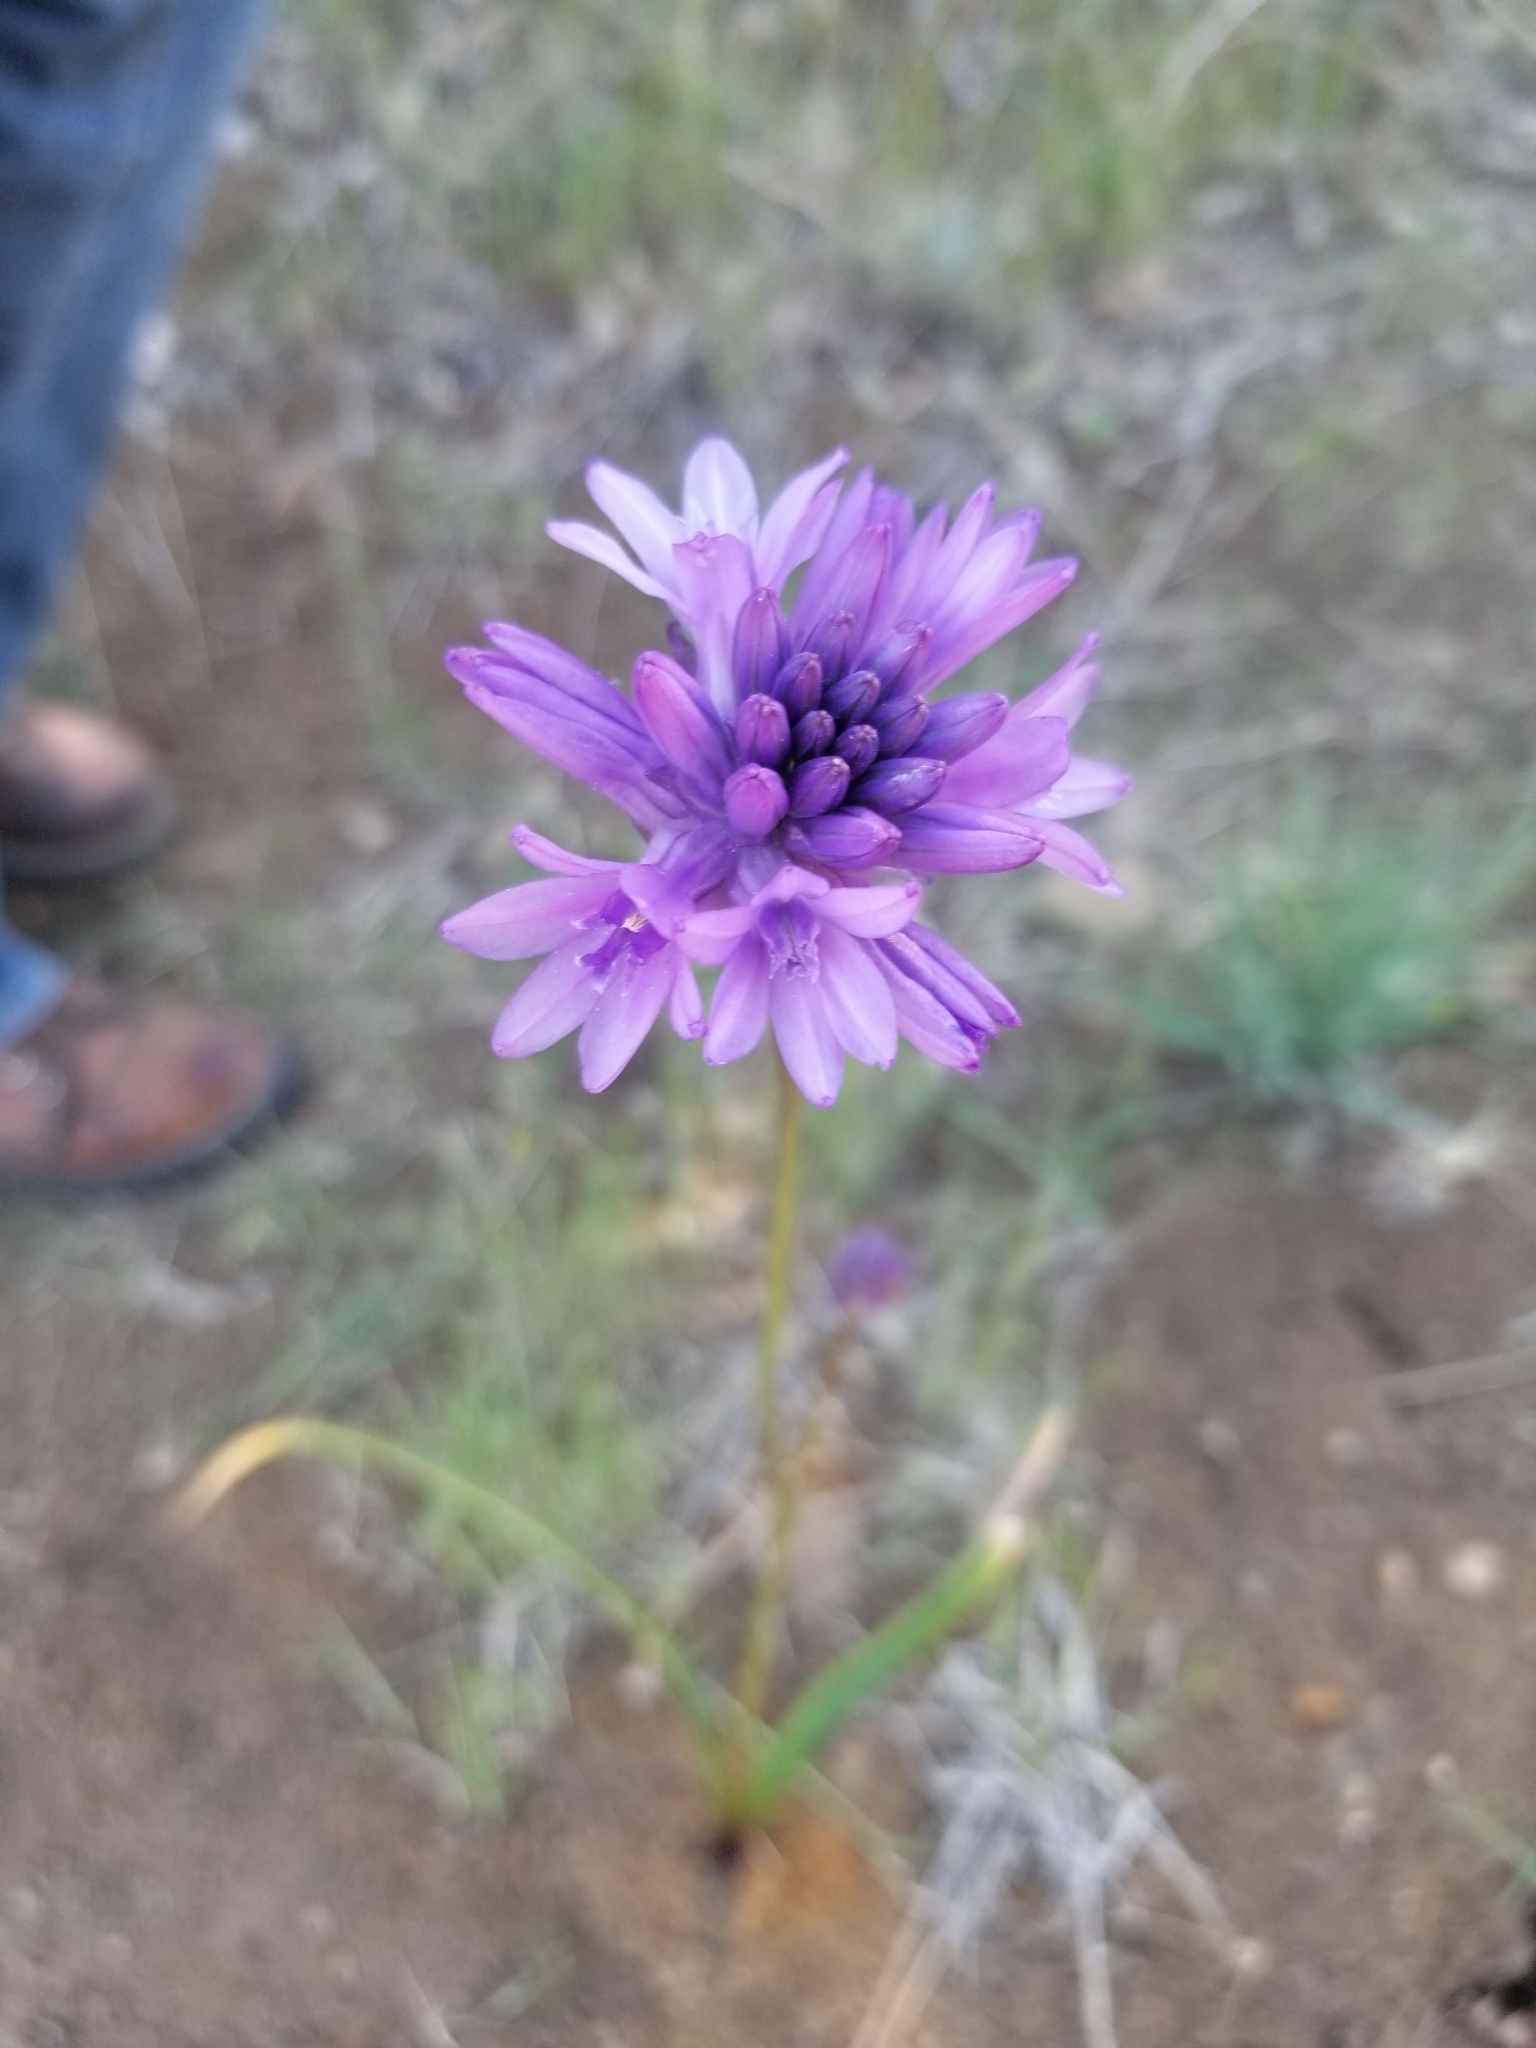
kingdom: Plantae
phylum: Tracheophyta
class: Liliopsida
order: Asparagales
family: Asparagaceae
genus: Dichelostemma
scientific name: Dichelostemma congestum
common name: Fork-tooth ookow
